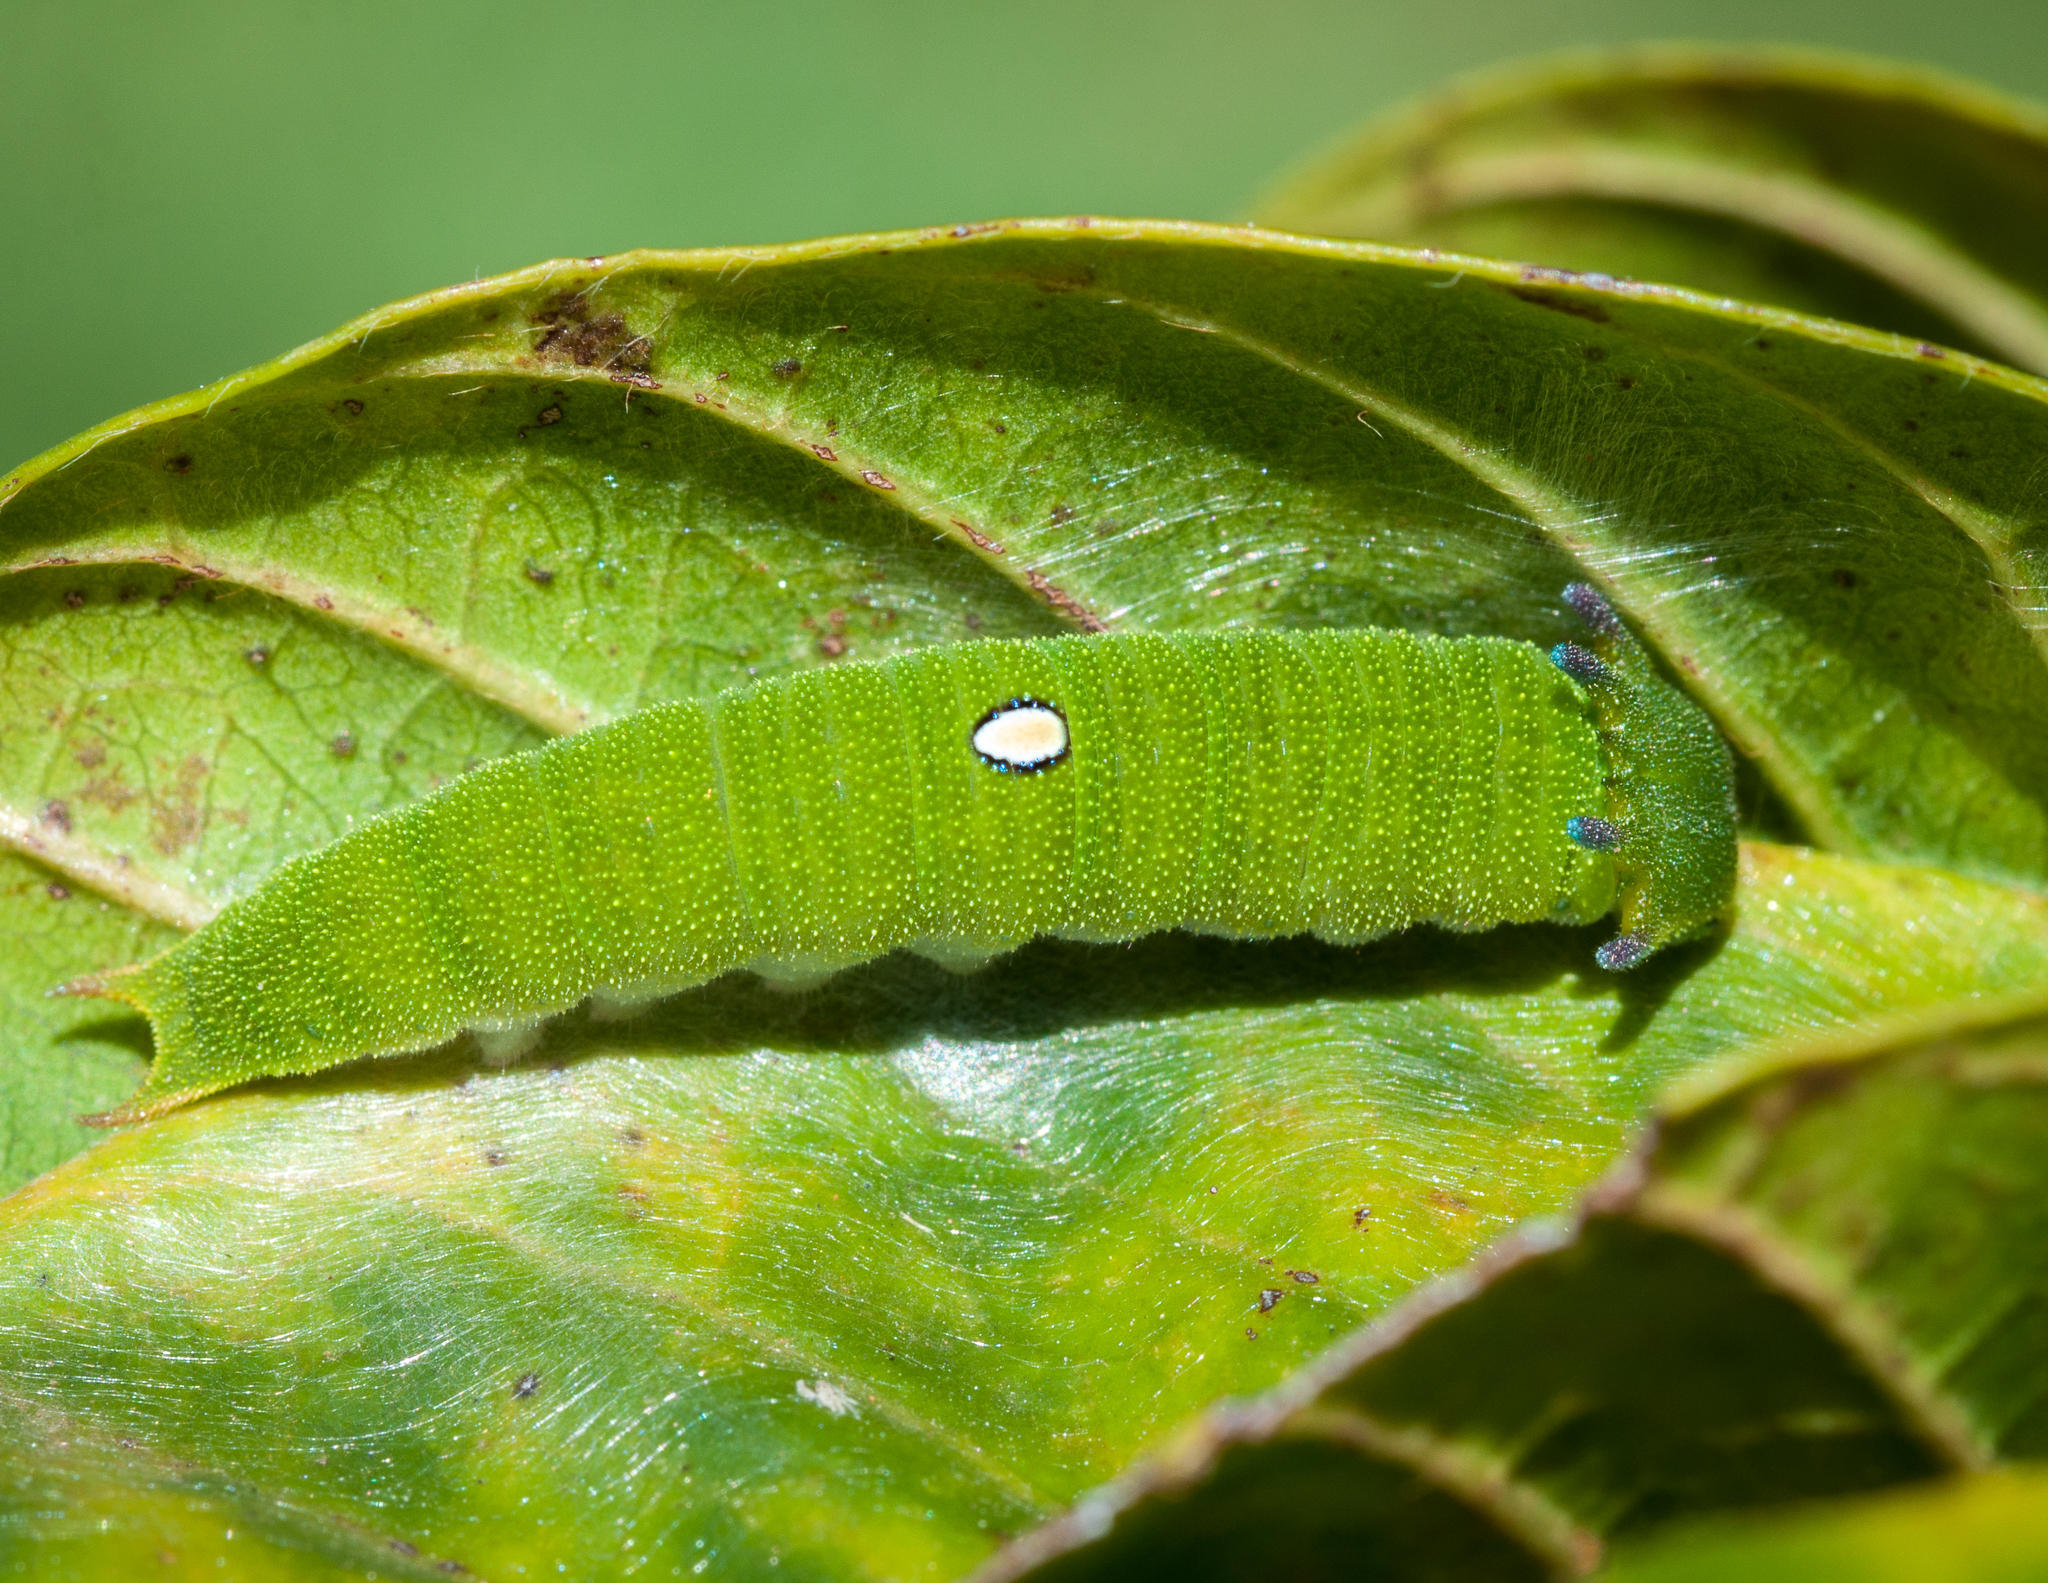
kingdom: Animalia
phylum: Arthropoda
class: Insecta
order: Lepidoptera
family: Nymphalidae
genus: Charaxes
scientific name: Charaxes brutus
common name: White-barred charaxes
